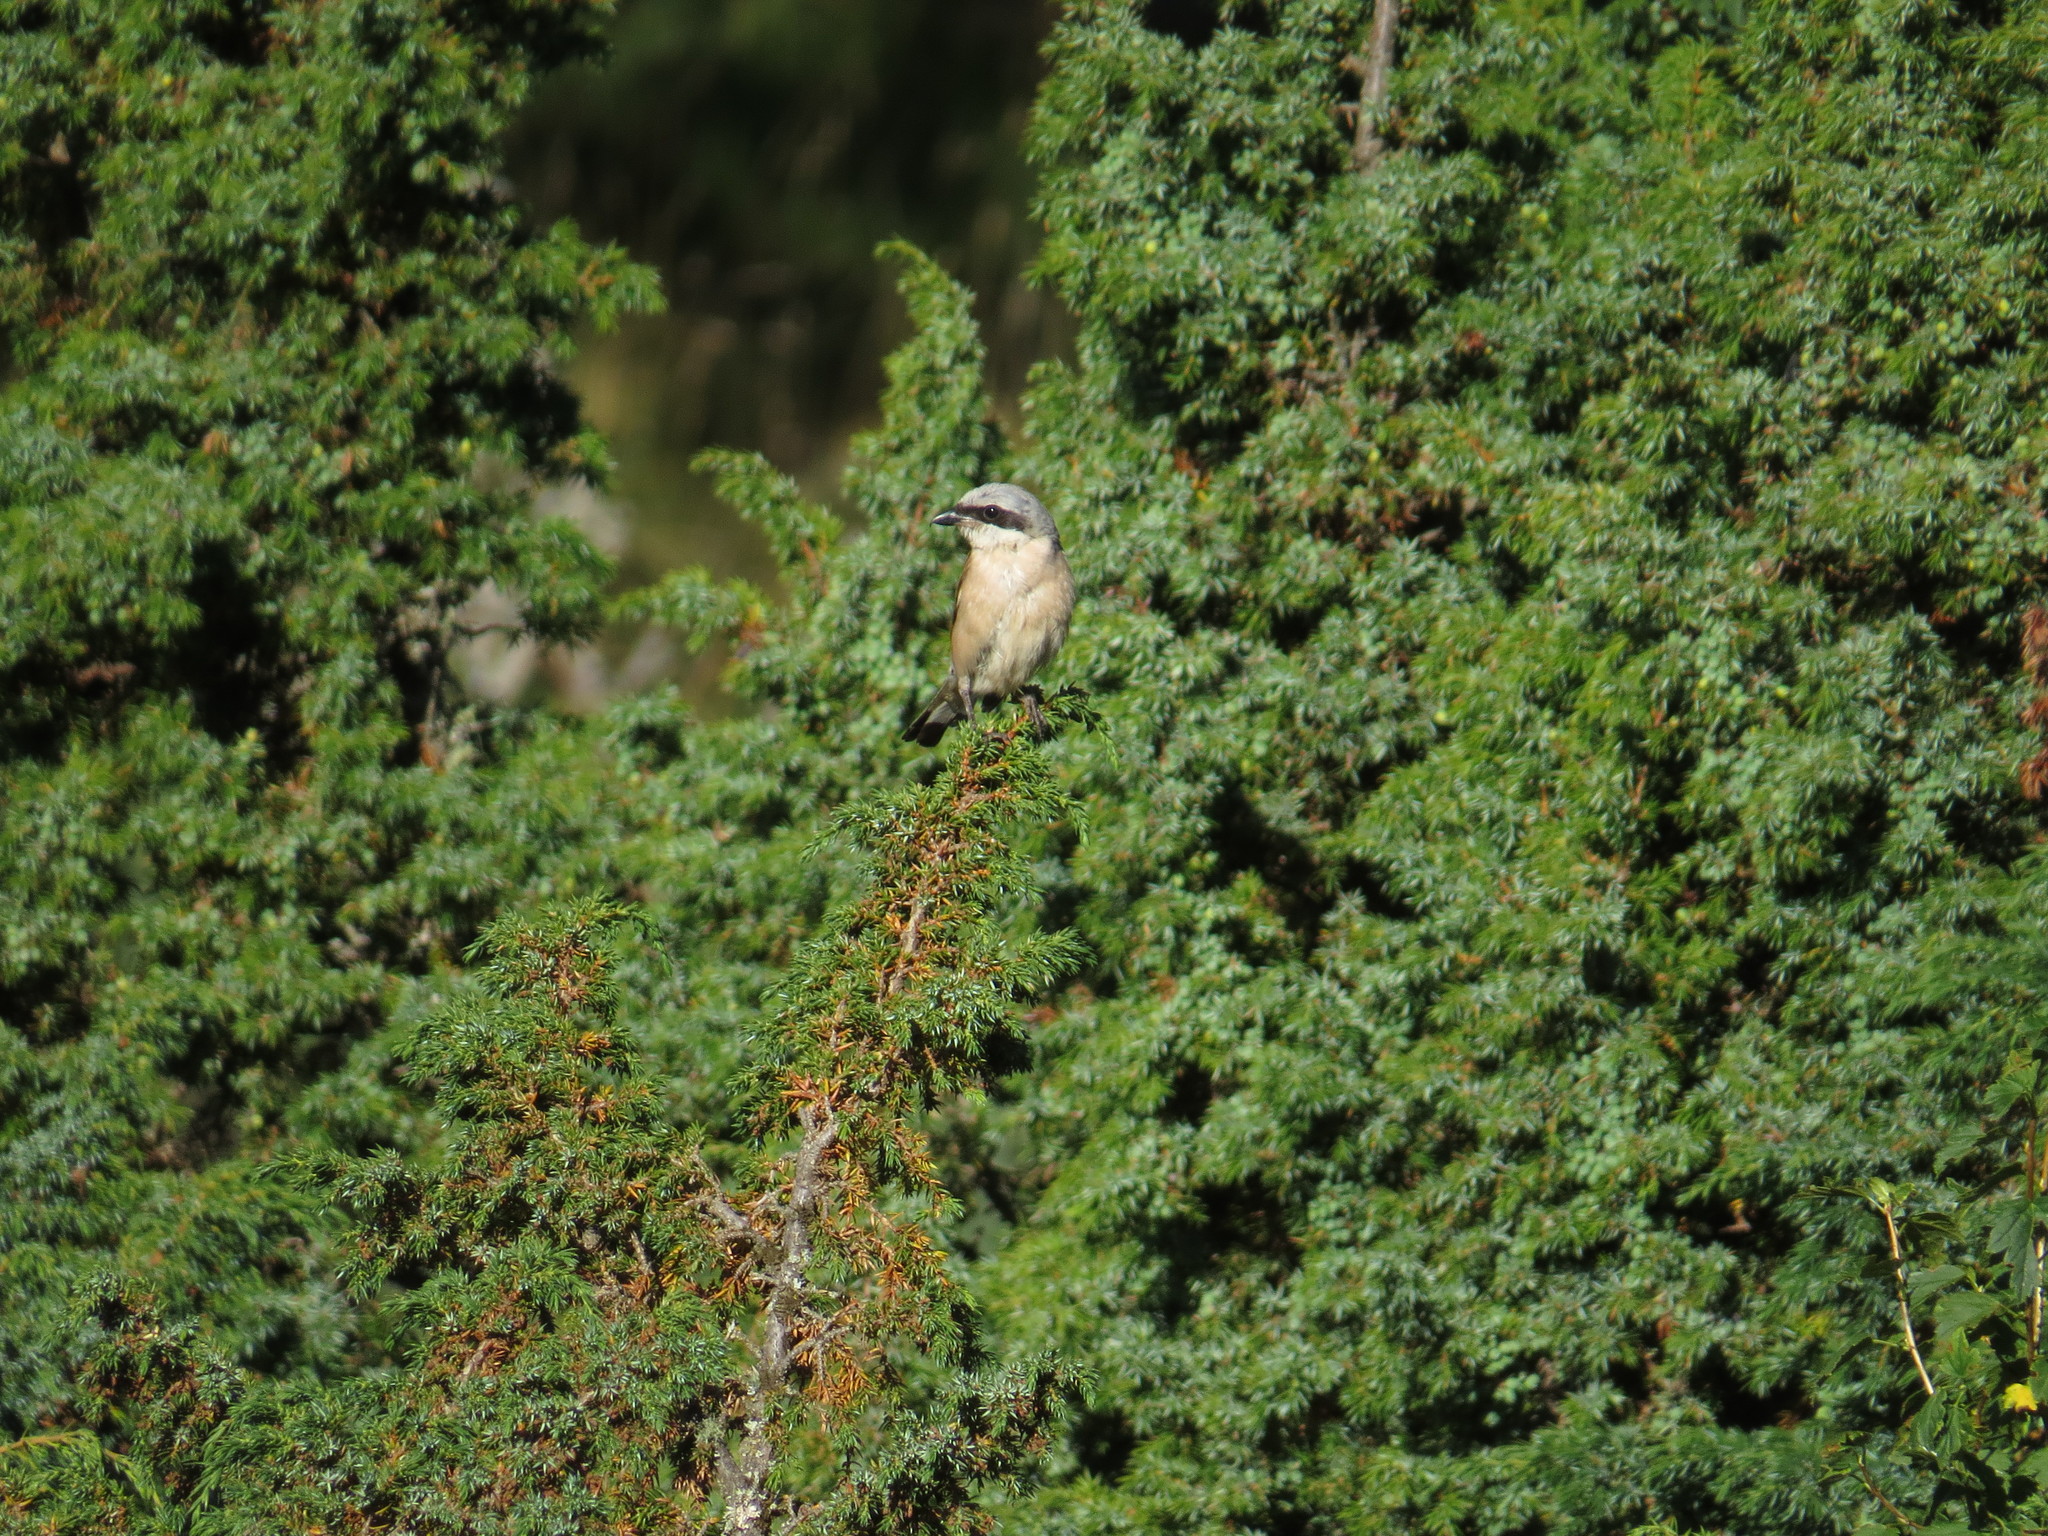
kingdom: Animalia
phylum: Chordata
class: Aves
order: Passeriformes
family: Laniidae
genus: Lanius
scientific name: Lanius collurio
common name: Red-backed shrike
